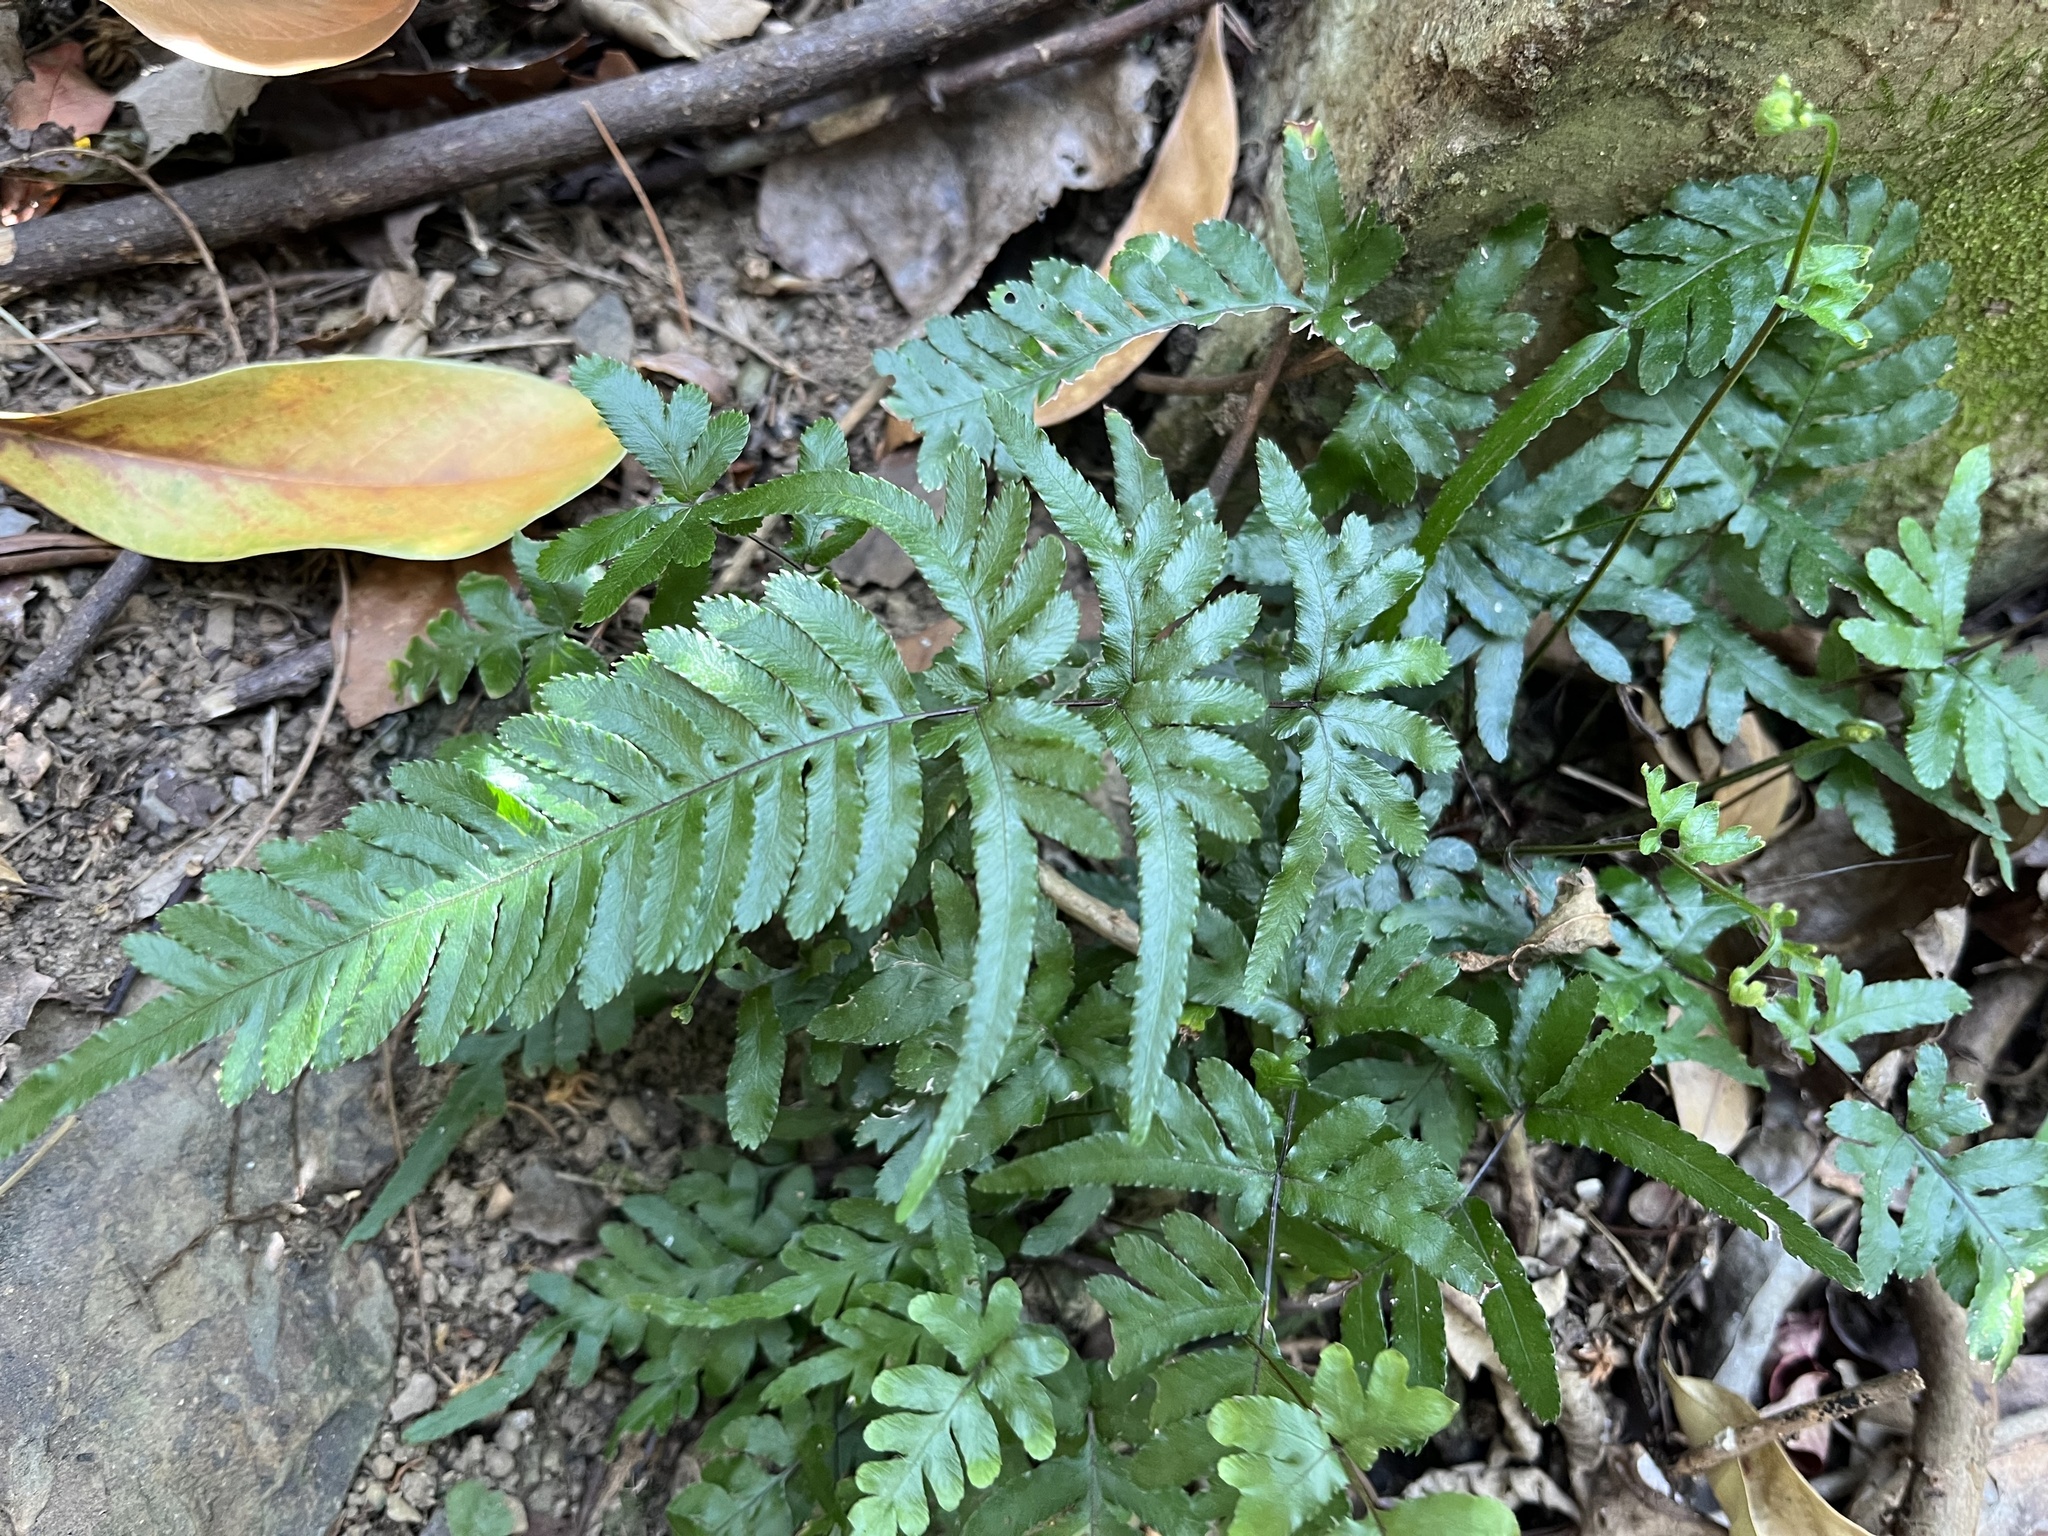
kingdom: Plantae
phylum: Tracheophyta
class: Polypodiopsida
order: Polypodiales
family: Pteridaceae
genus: Pteris
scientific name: Pteris dispar
